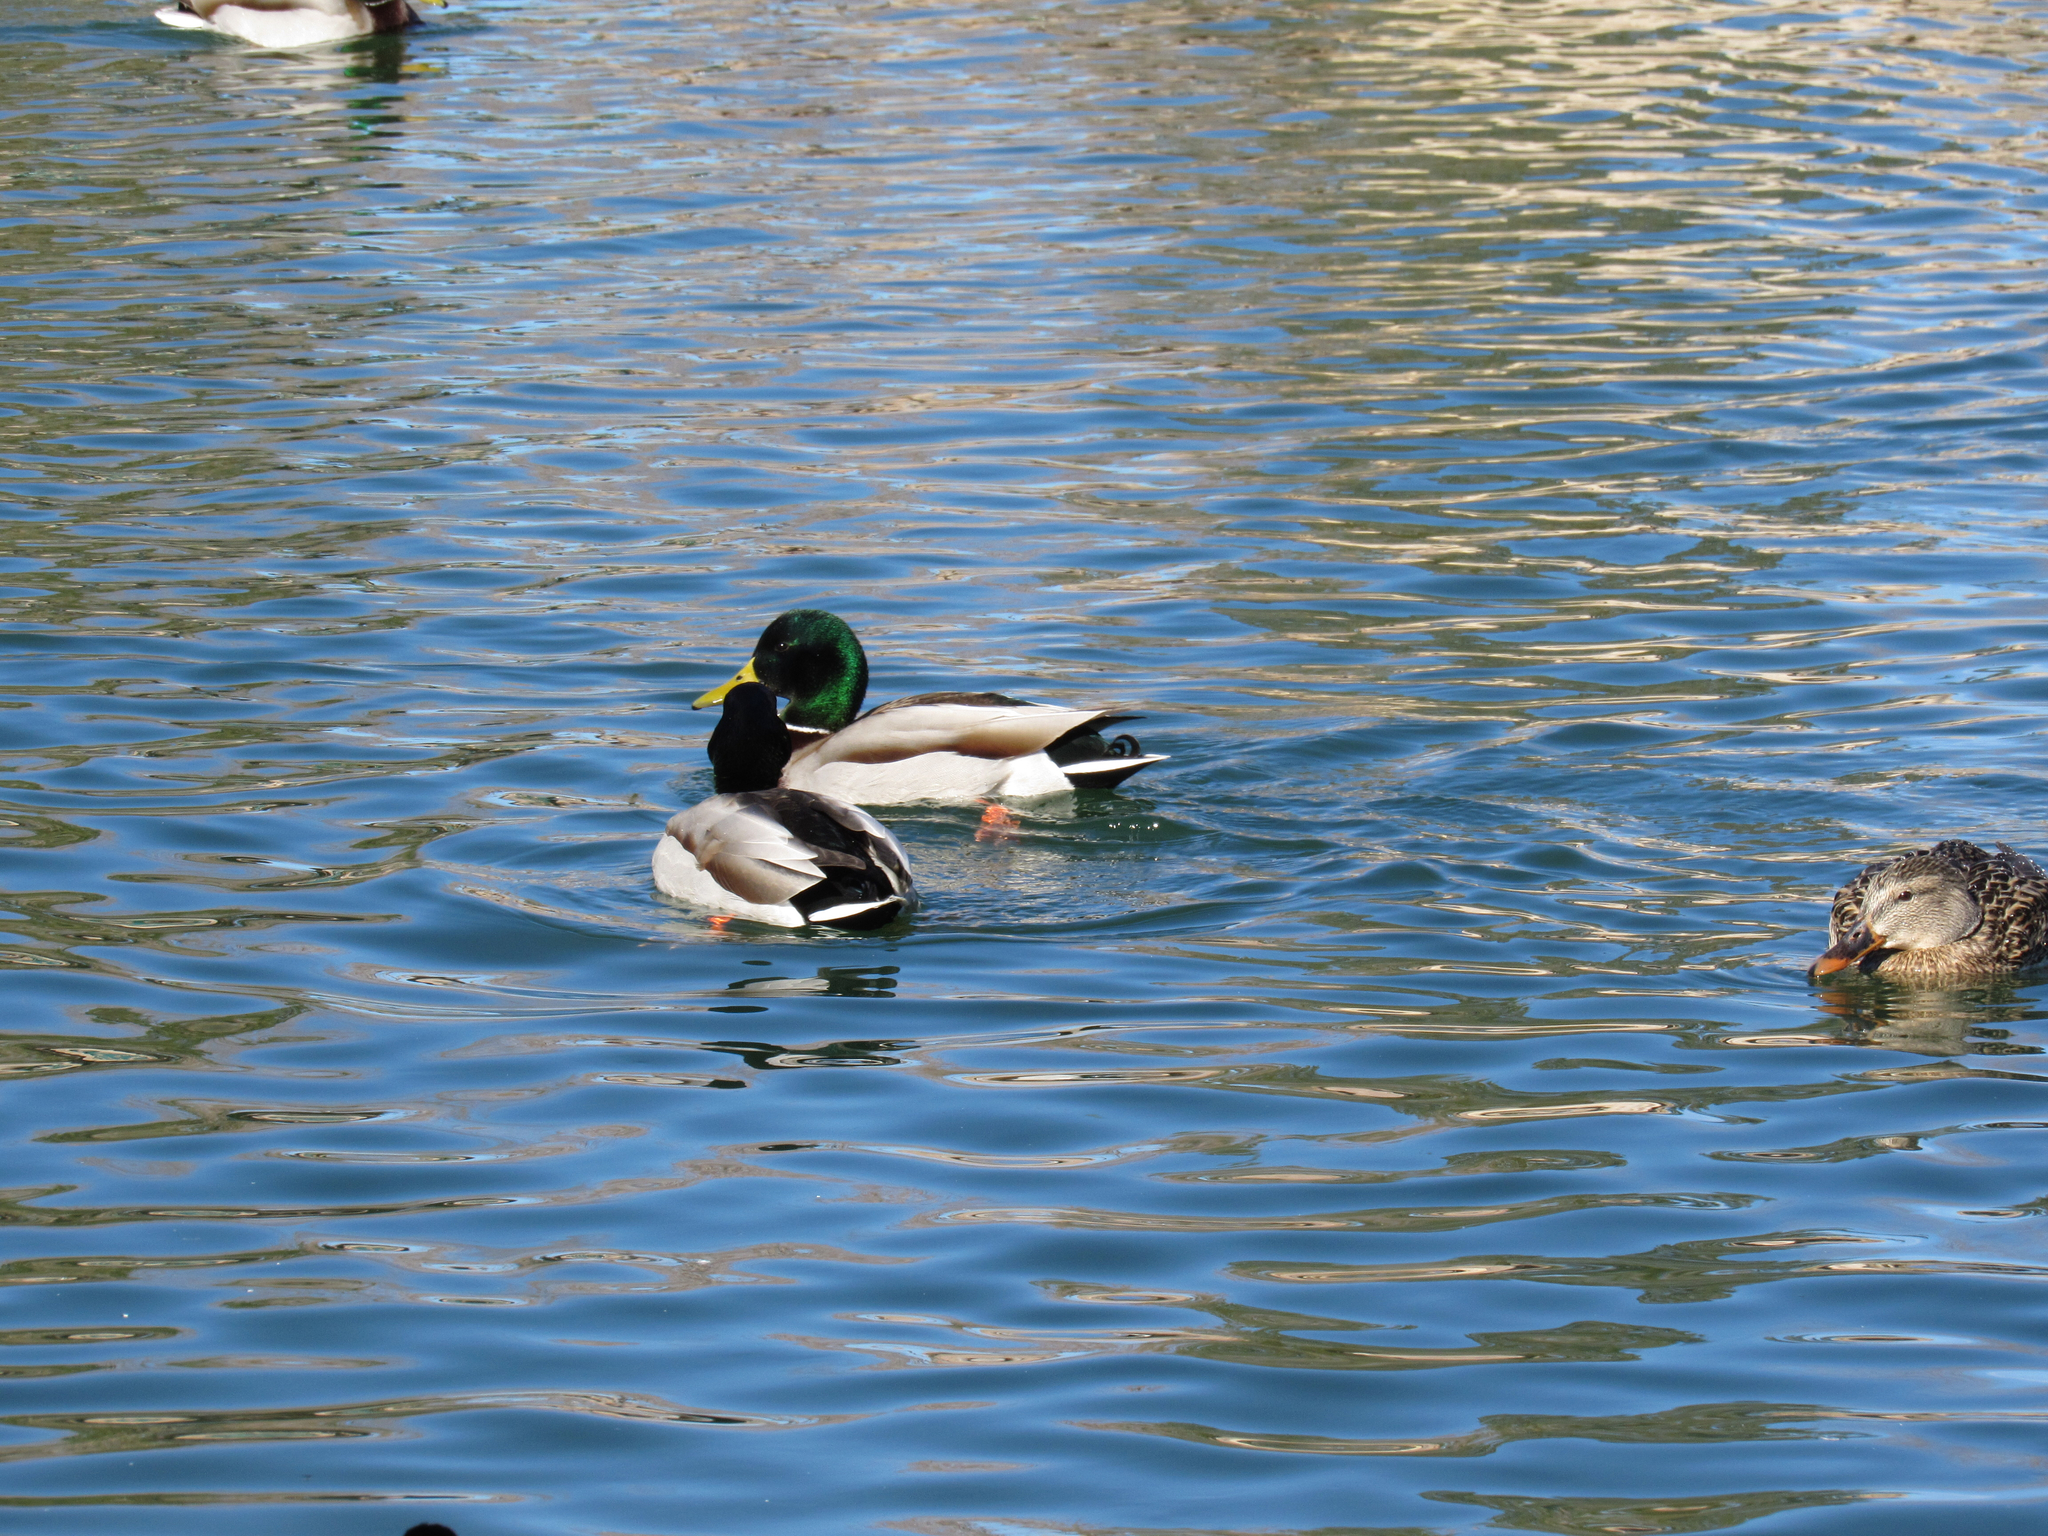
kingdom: Animalia
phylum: Chordata
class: Aves
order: Anseriformes
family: Anatidae
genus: Anas
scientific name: Anas platyrhynchos
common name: Mallard
